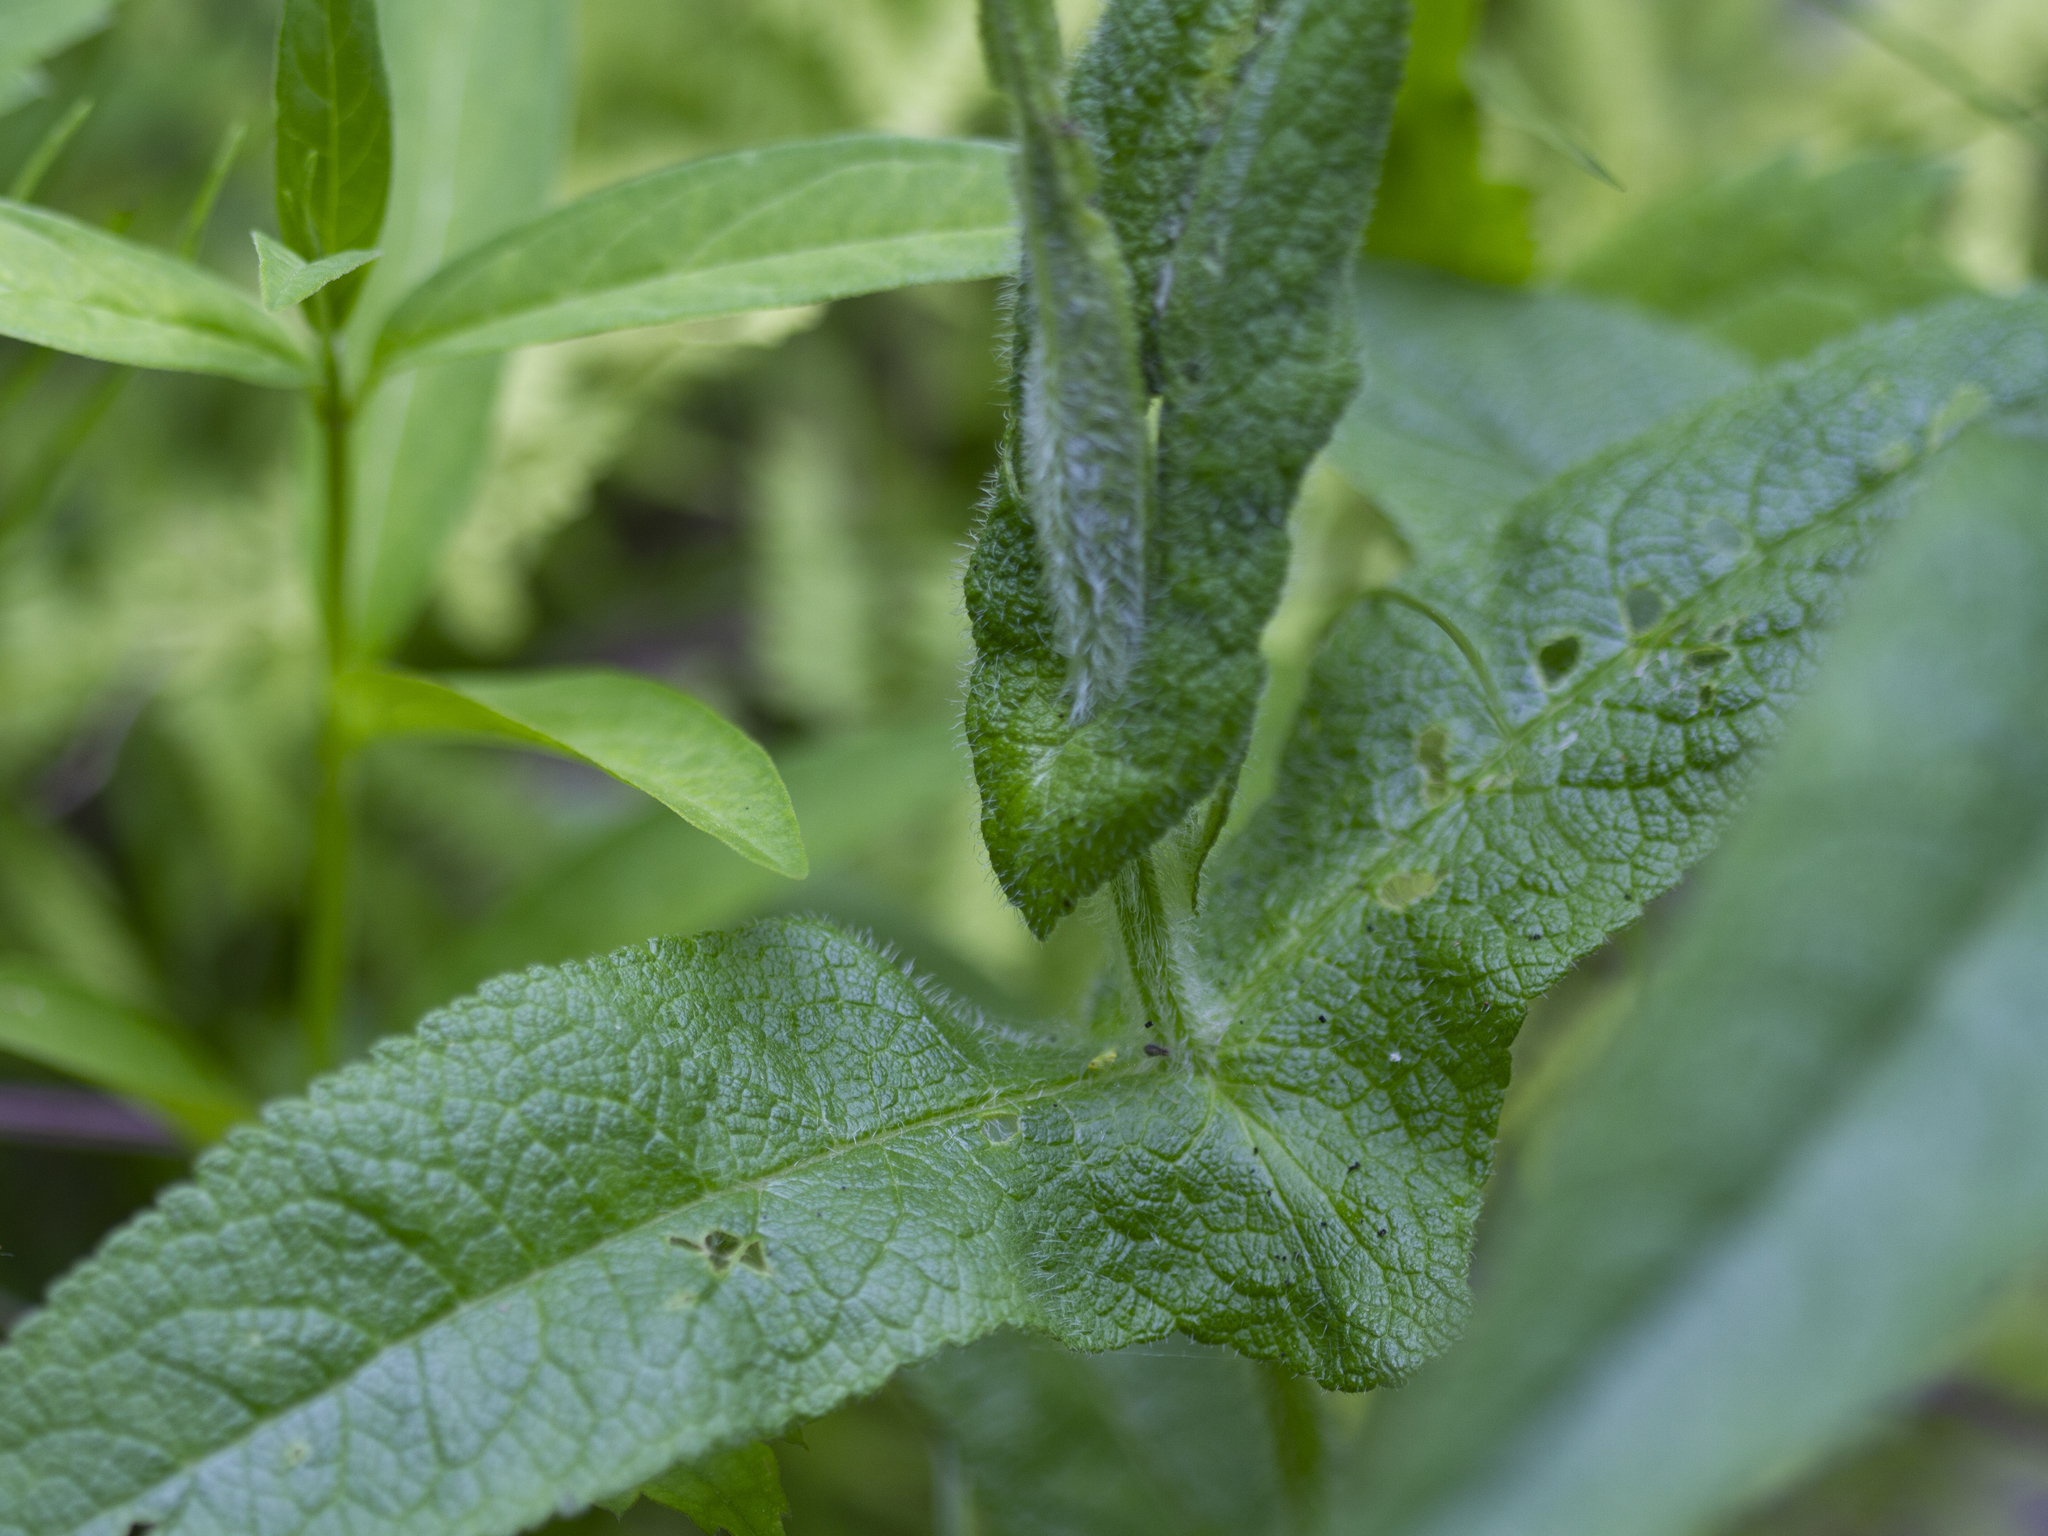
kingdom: Plantae
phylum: Tracheophyta
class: Magnoliopsida
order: Asterales
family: Asteraceae
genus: Eupatorium
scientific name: Eupatorium perfoliatum
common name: Boneset
